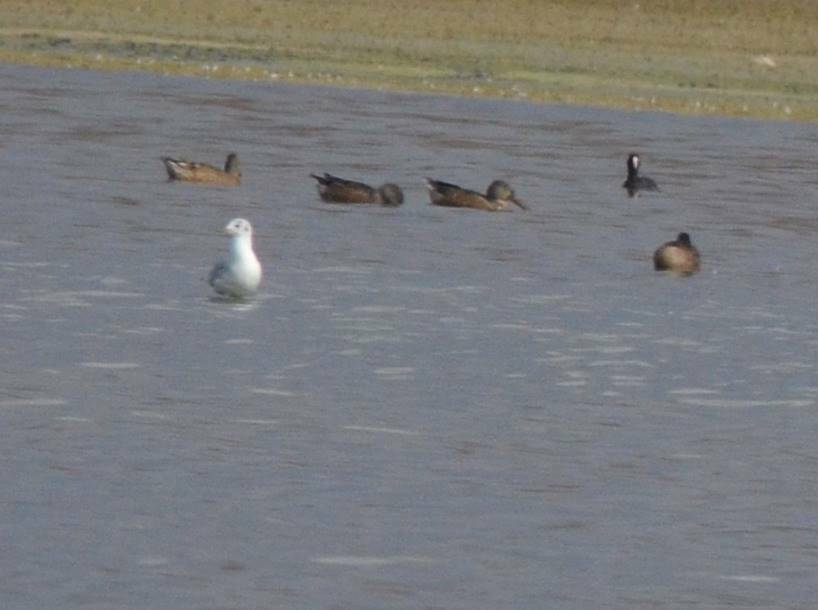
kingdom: Animalia
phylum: Chordata
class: Aves
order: Charadriiformes
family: Laridae
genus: Chroicocephalus
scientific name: Chroicocephalus ridibundus
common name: Black-headed gull
